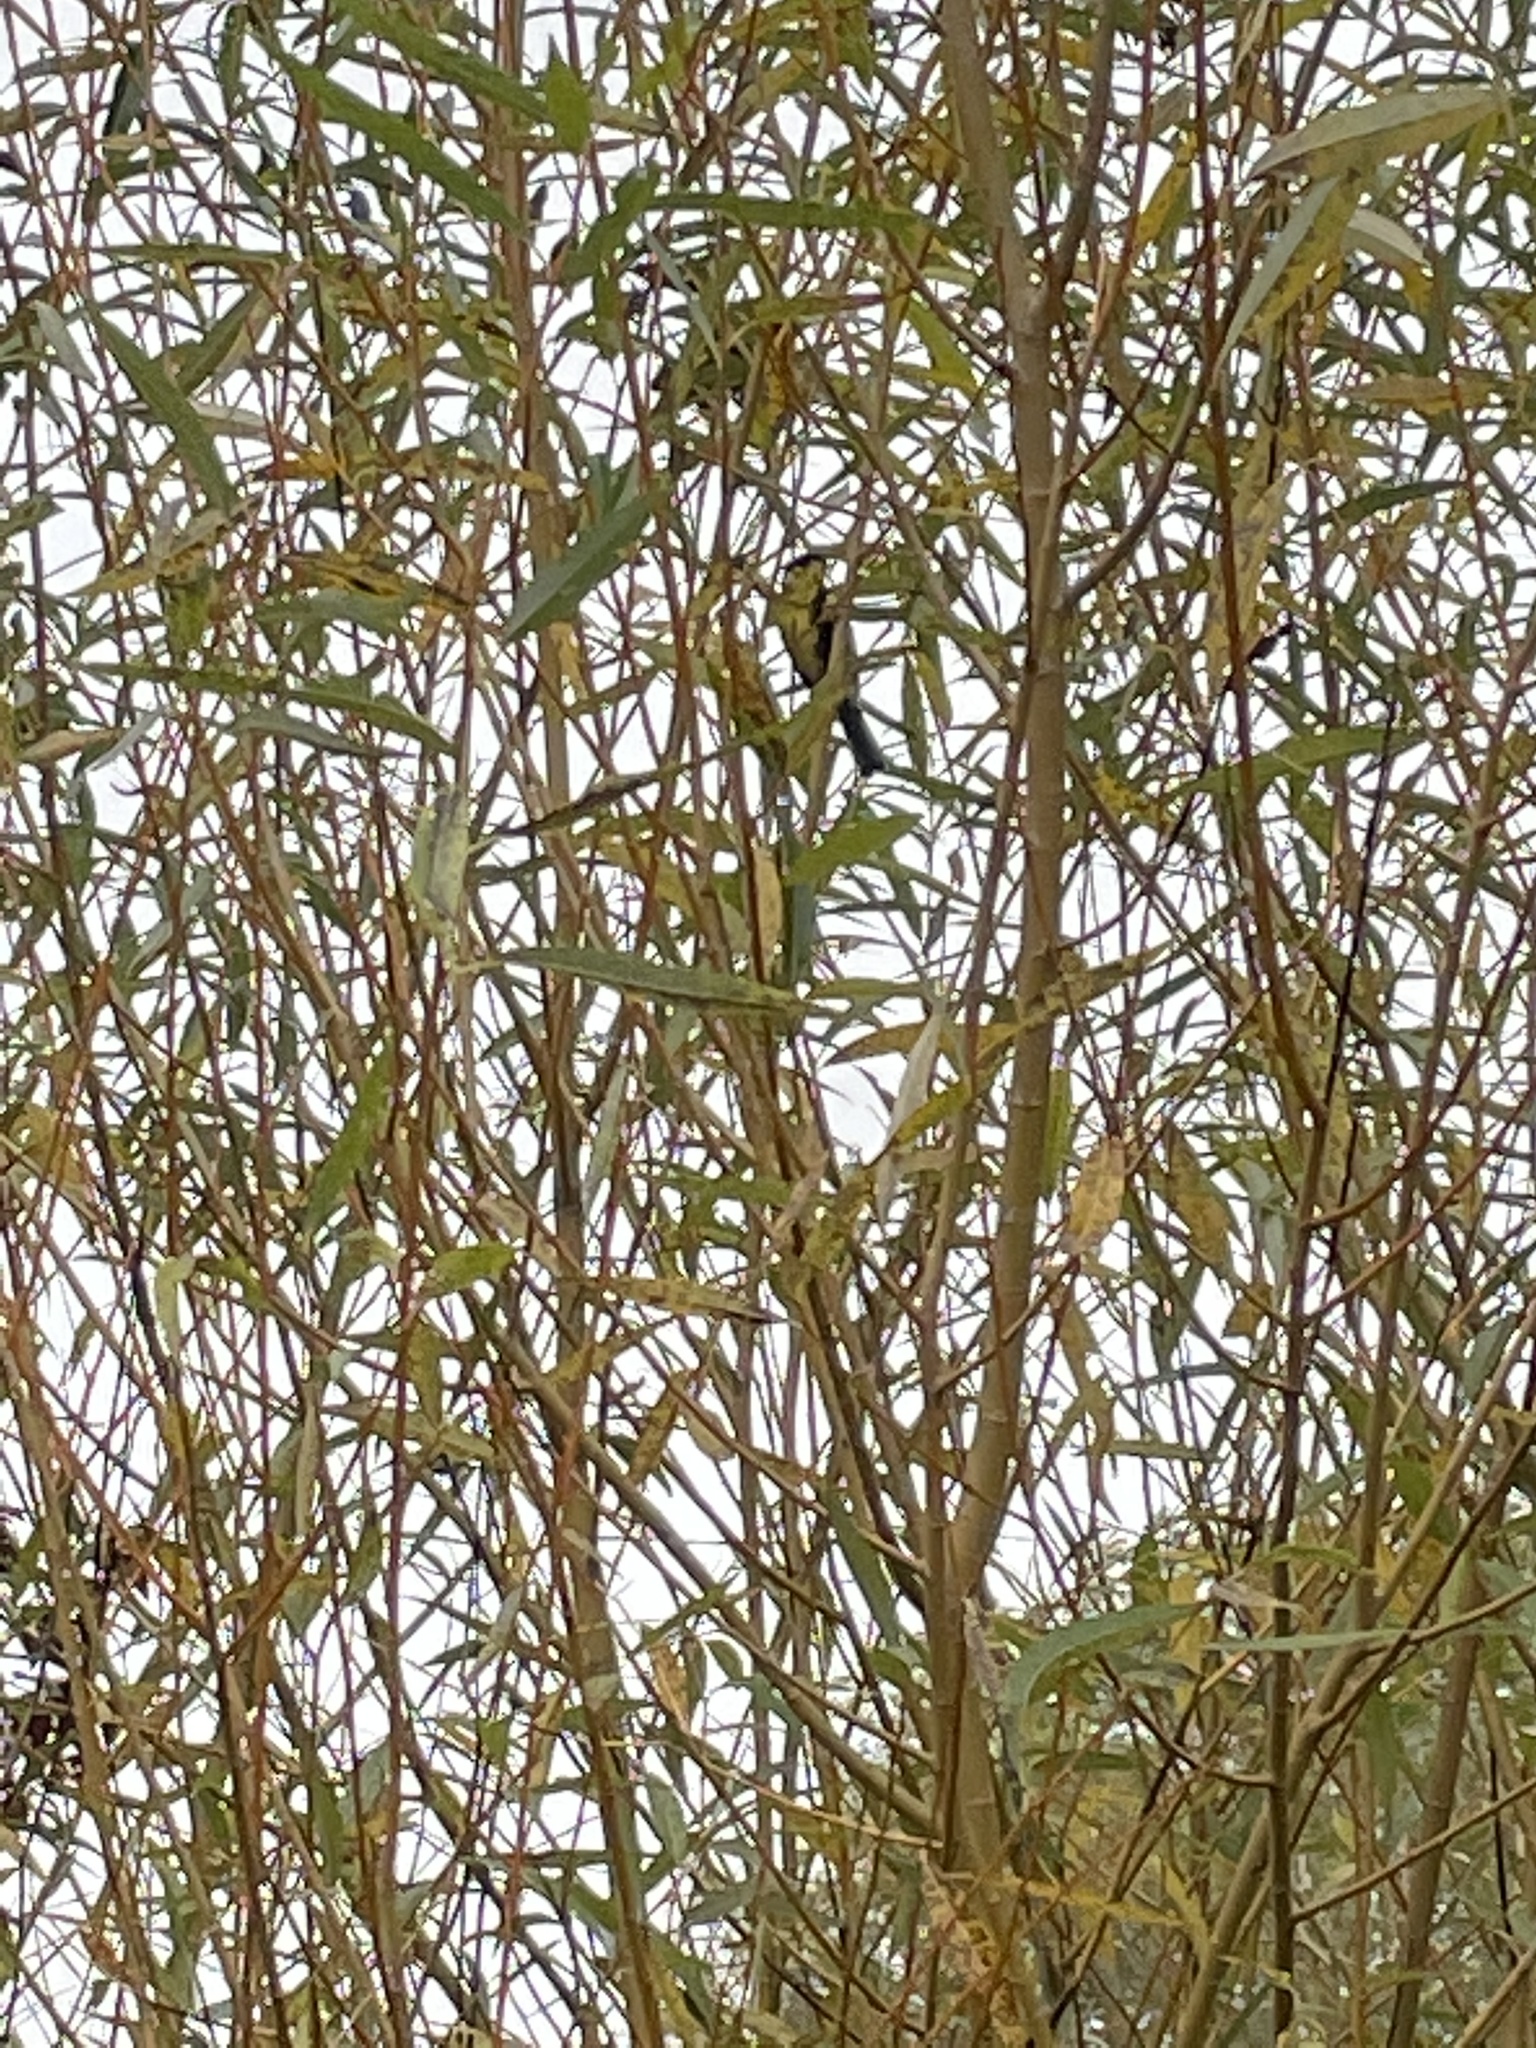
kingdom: Animalia
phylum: Chordata
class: Aves
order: Passeriformes
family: Paridae
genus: Parus
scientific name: Parus major
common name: Great tit
